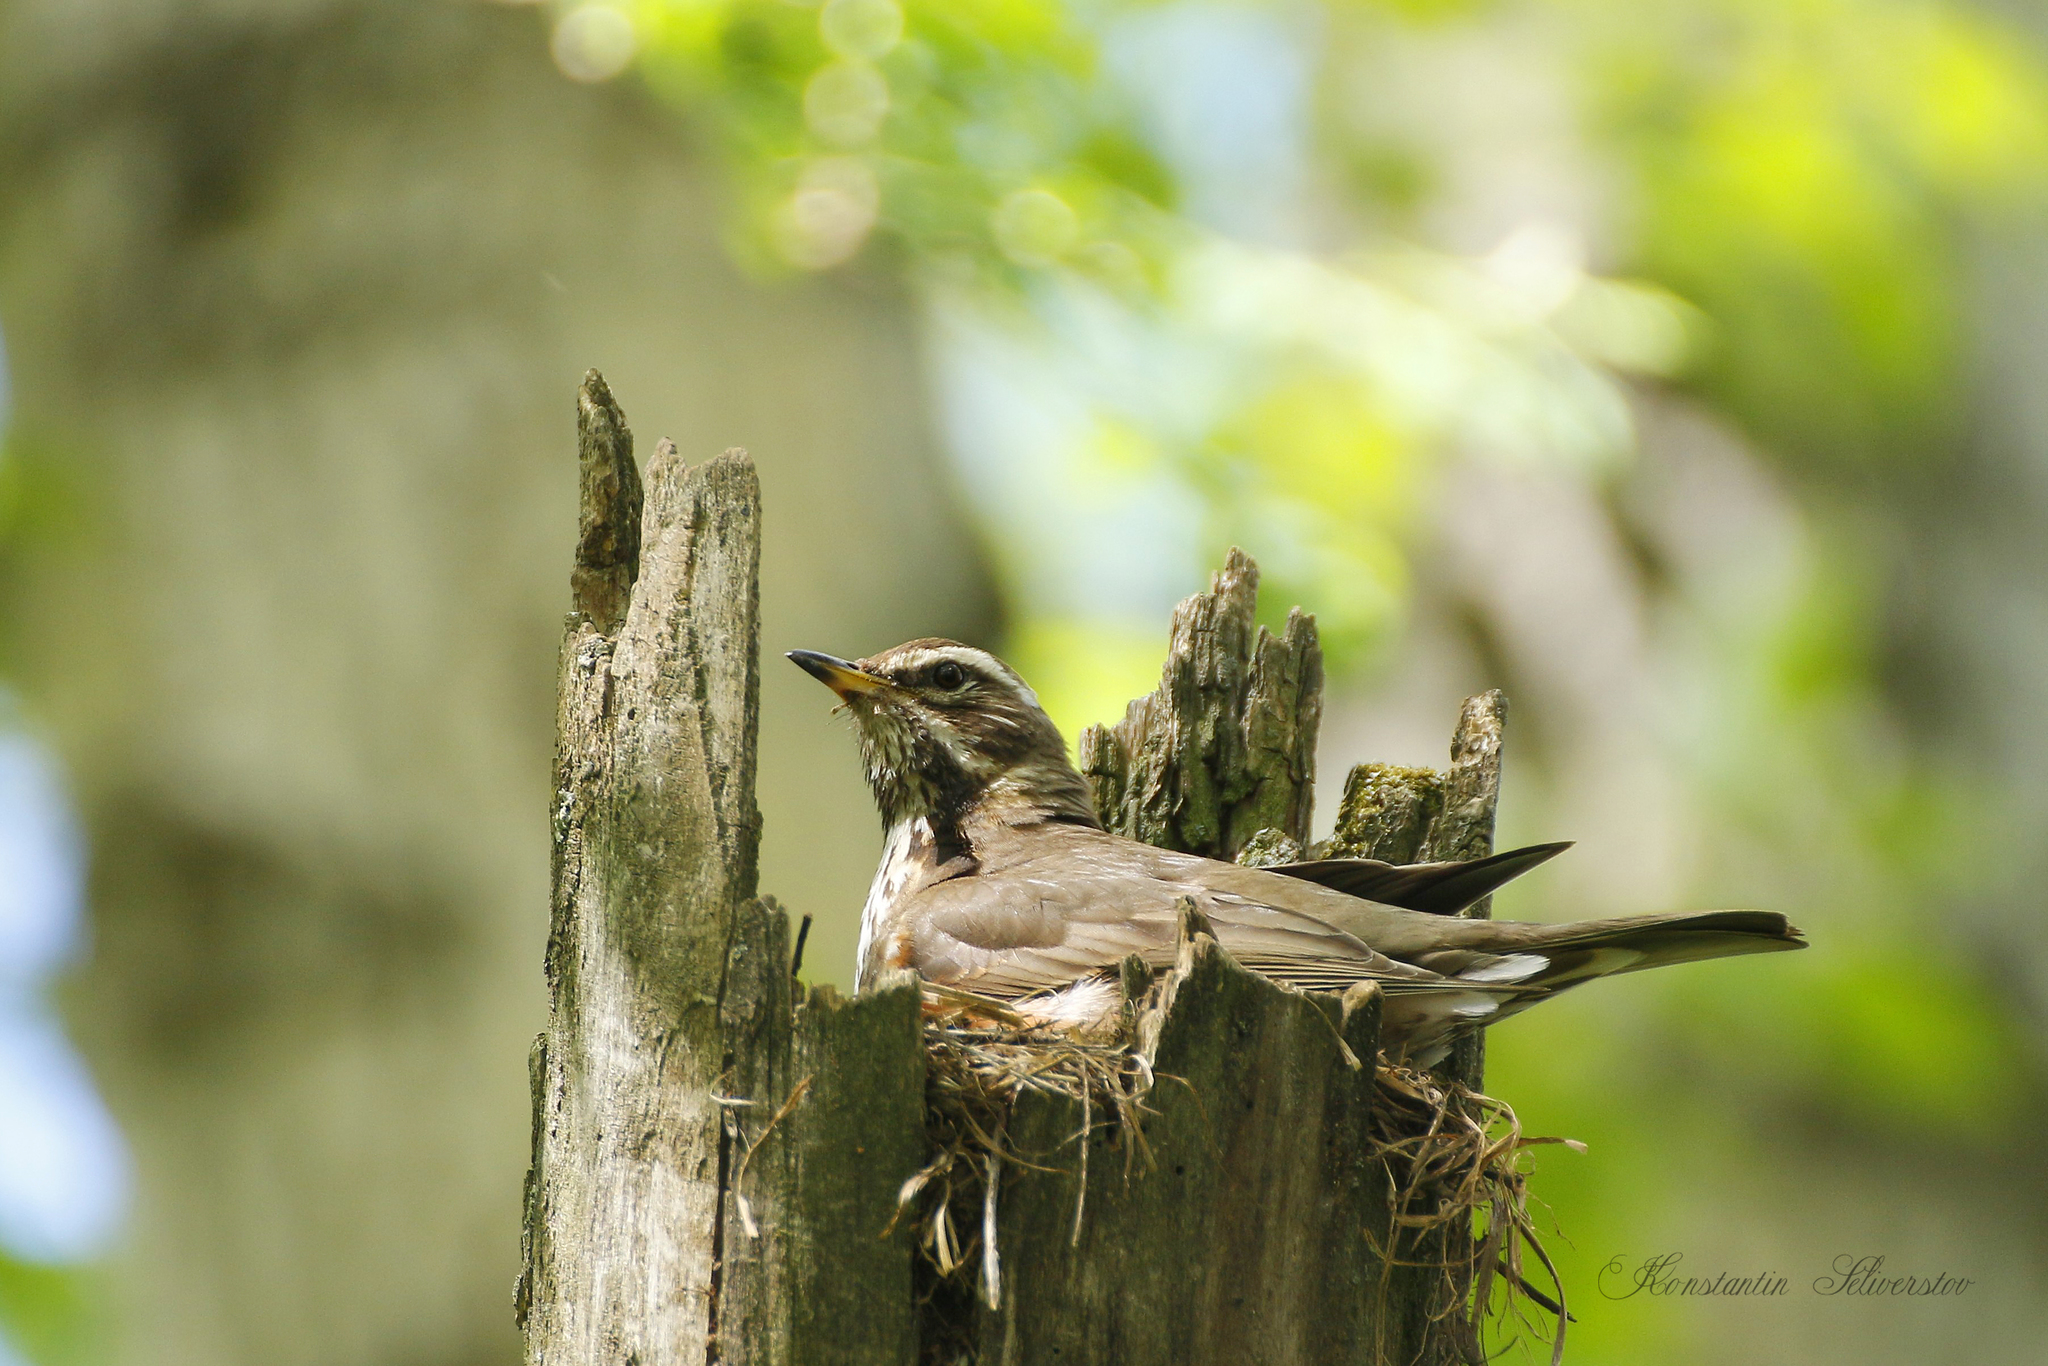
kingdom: Animalia
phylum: Chordata
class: Aves
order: Passeriformes
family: Turdidae
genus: Turdus
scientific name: Turdus iliacus
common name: Redwing
